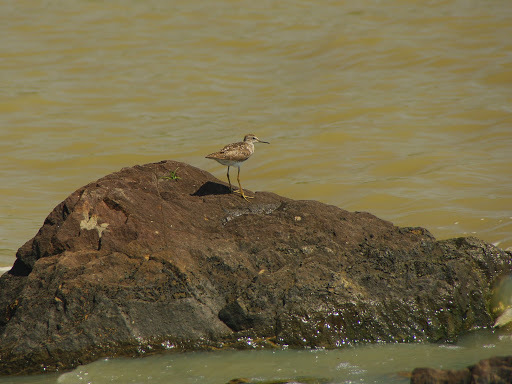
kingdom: Animalia
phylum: Chordata
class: Aves
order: Charadriiformes
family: Scolopacidae
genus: Tringa
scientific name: Tringa glareola
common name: Wood sandpiper
